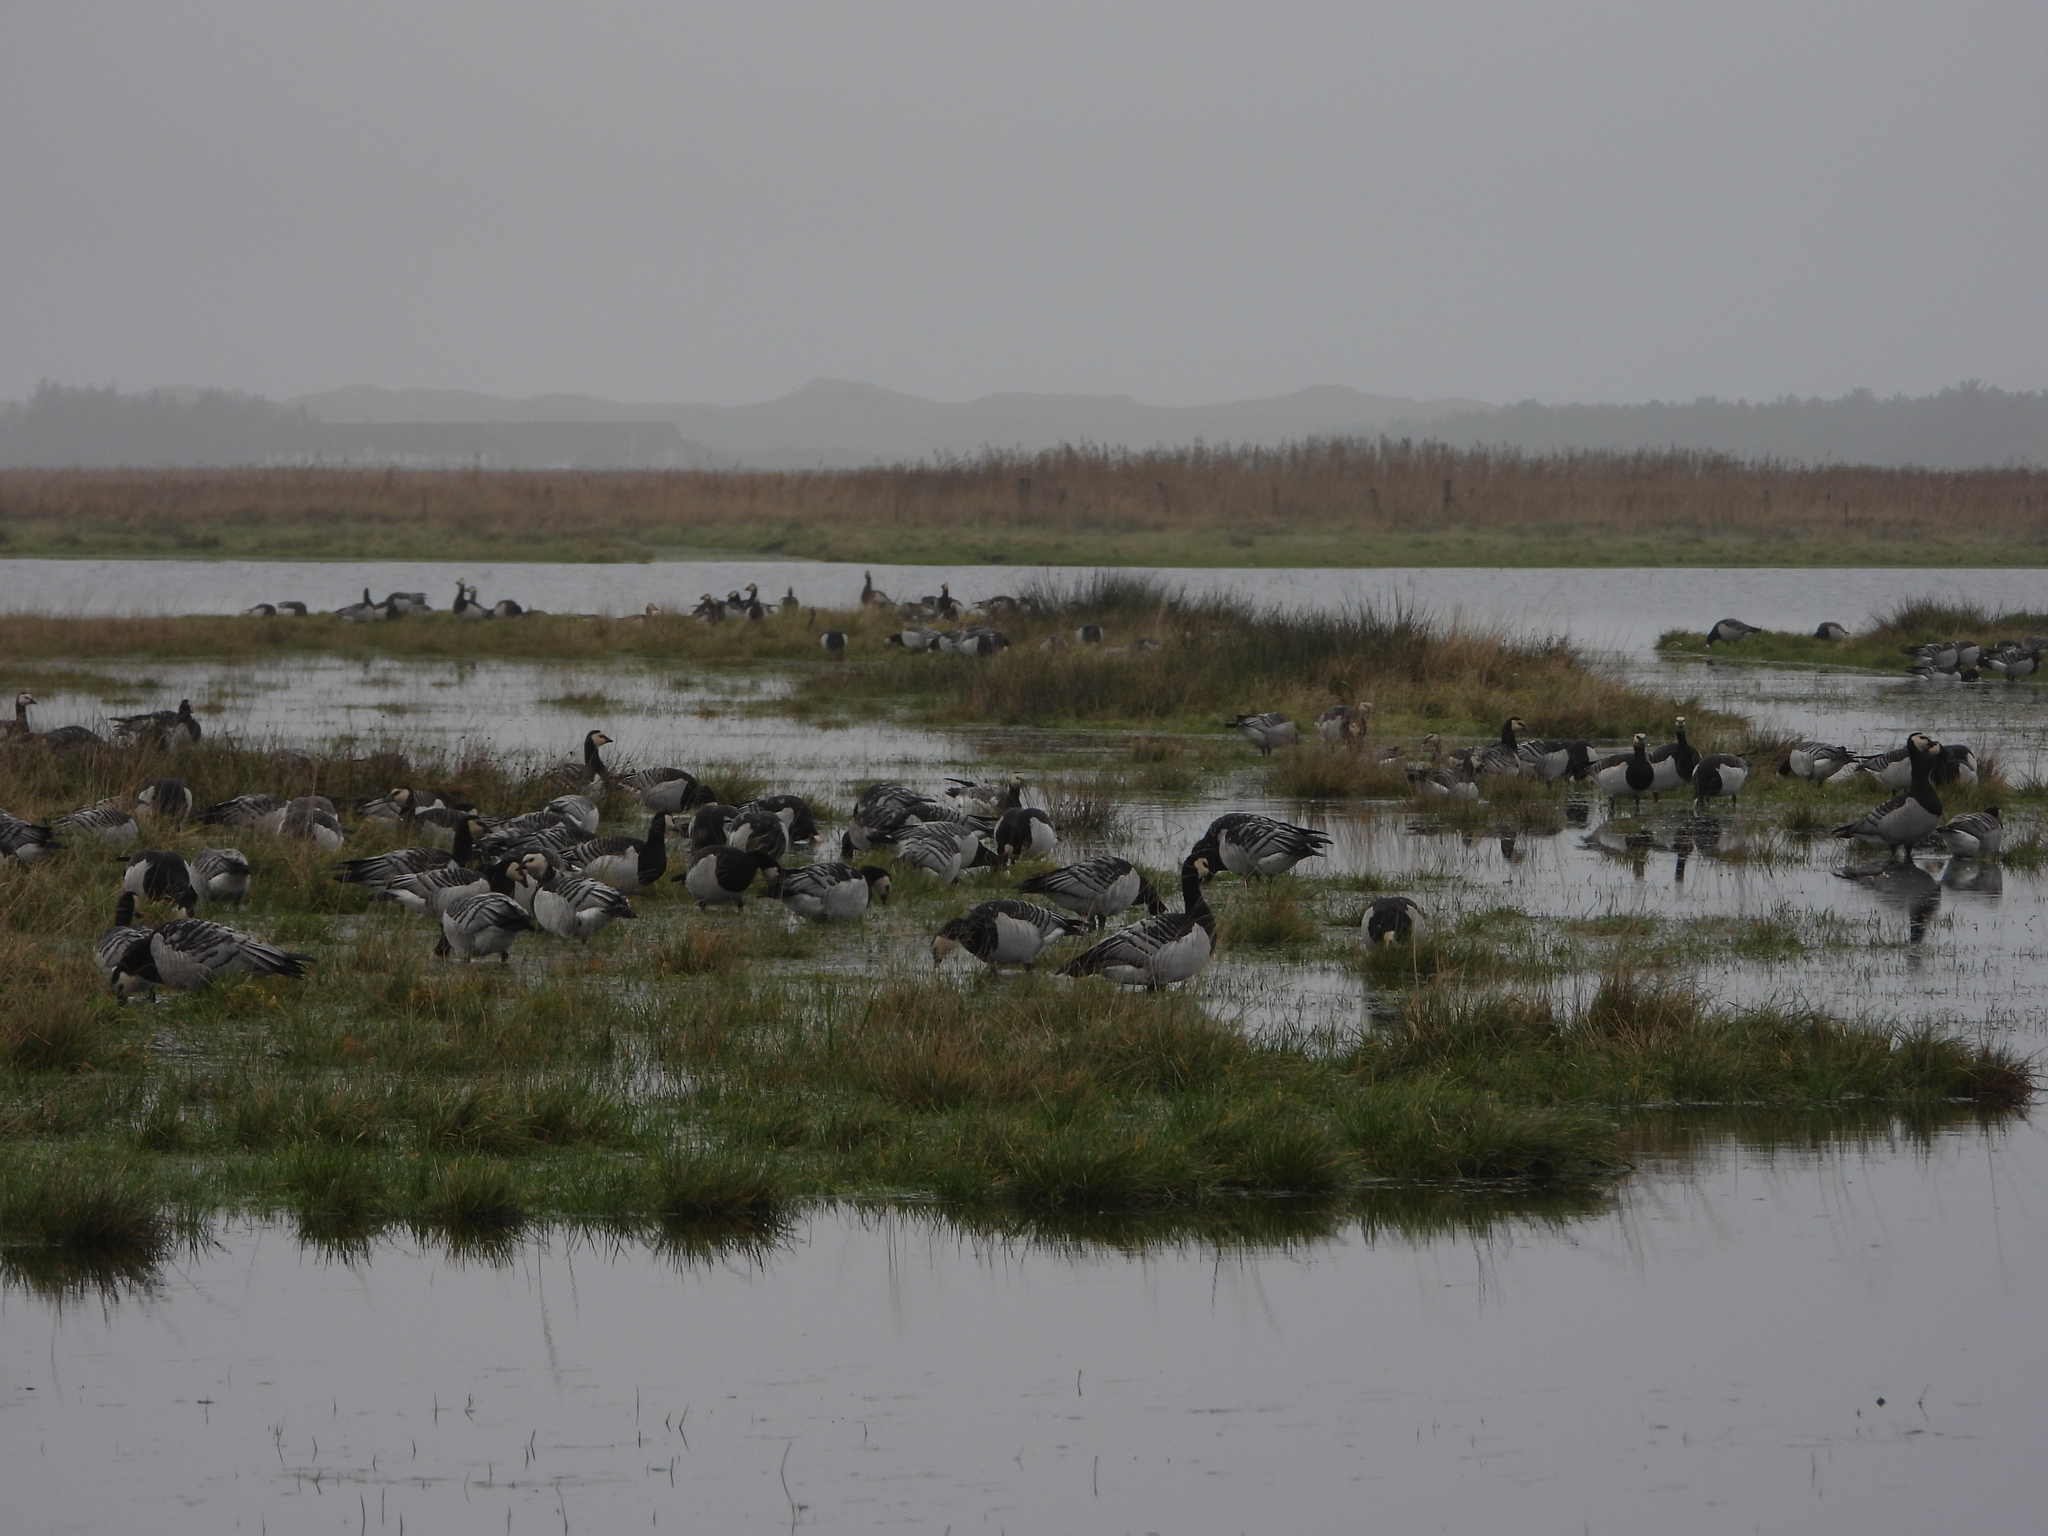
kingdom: Animalia
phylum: Chordata
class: Aves
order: Anseriformes
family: Anatidae
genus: Branta
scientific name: Branta leucopsis
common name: Barnacle goose
